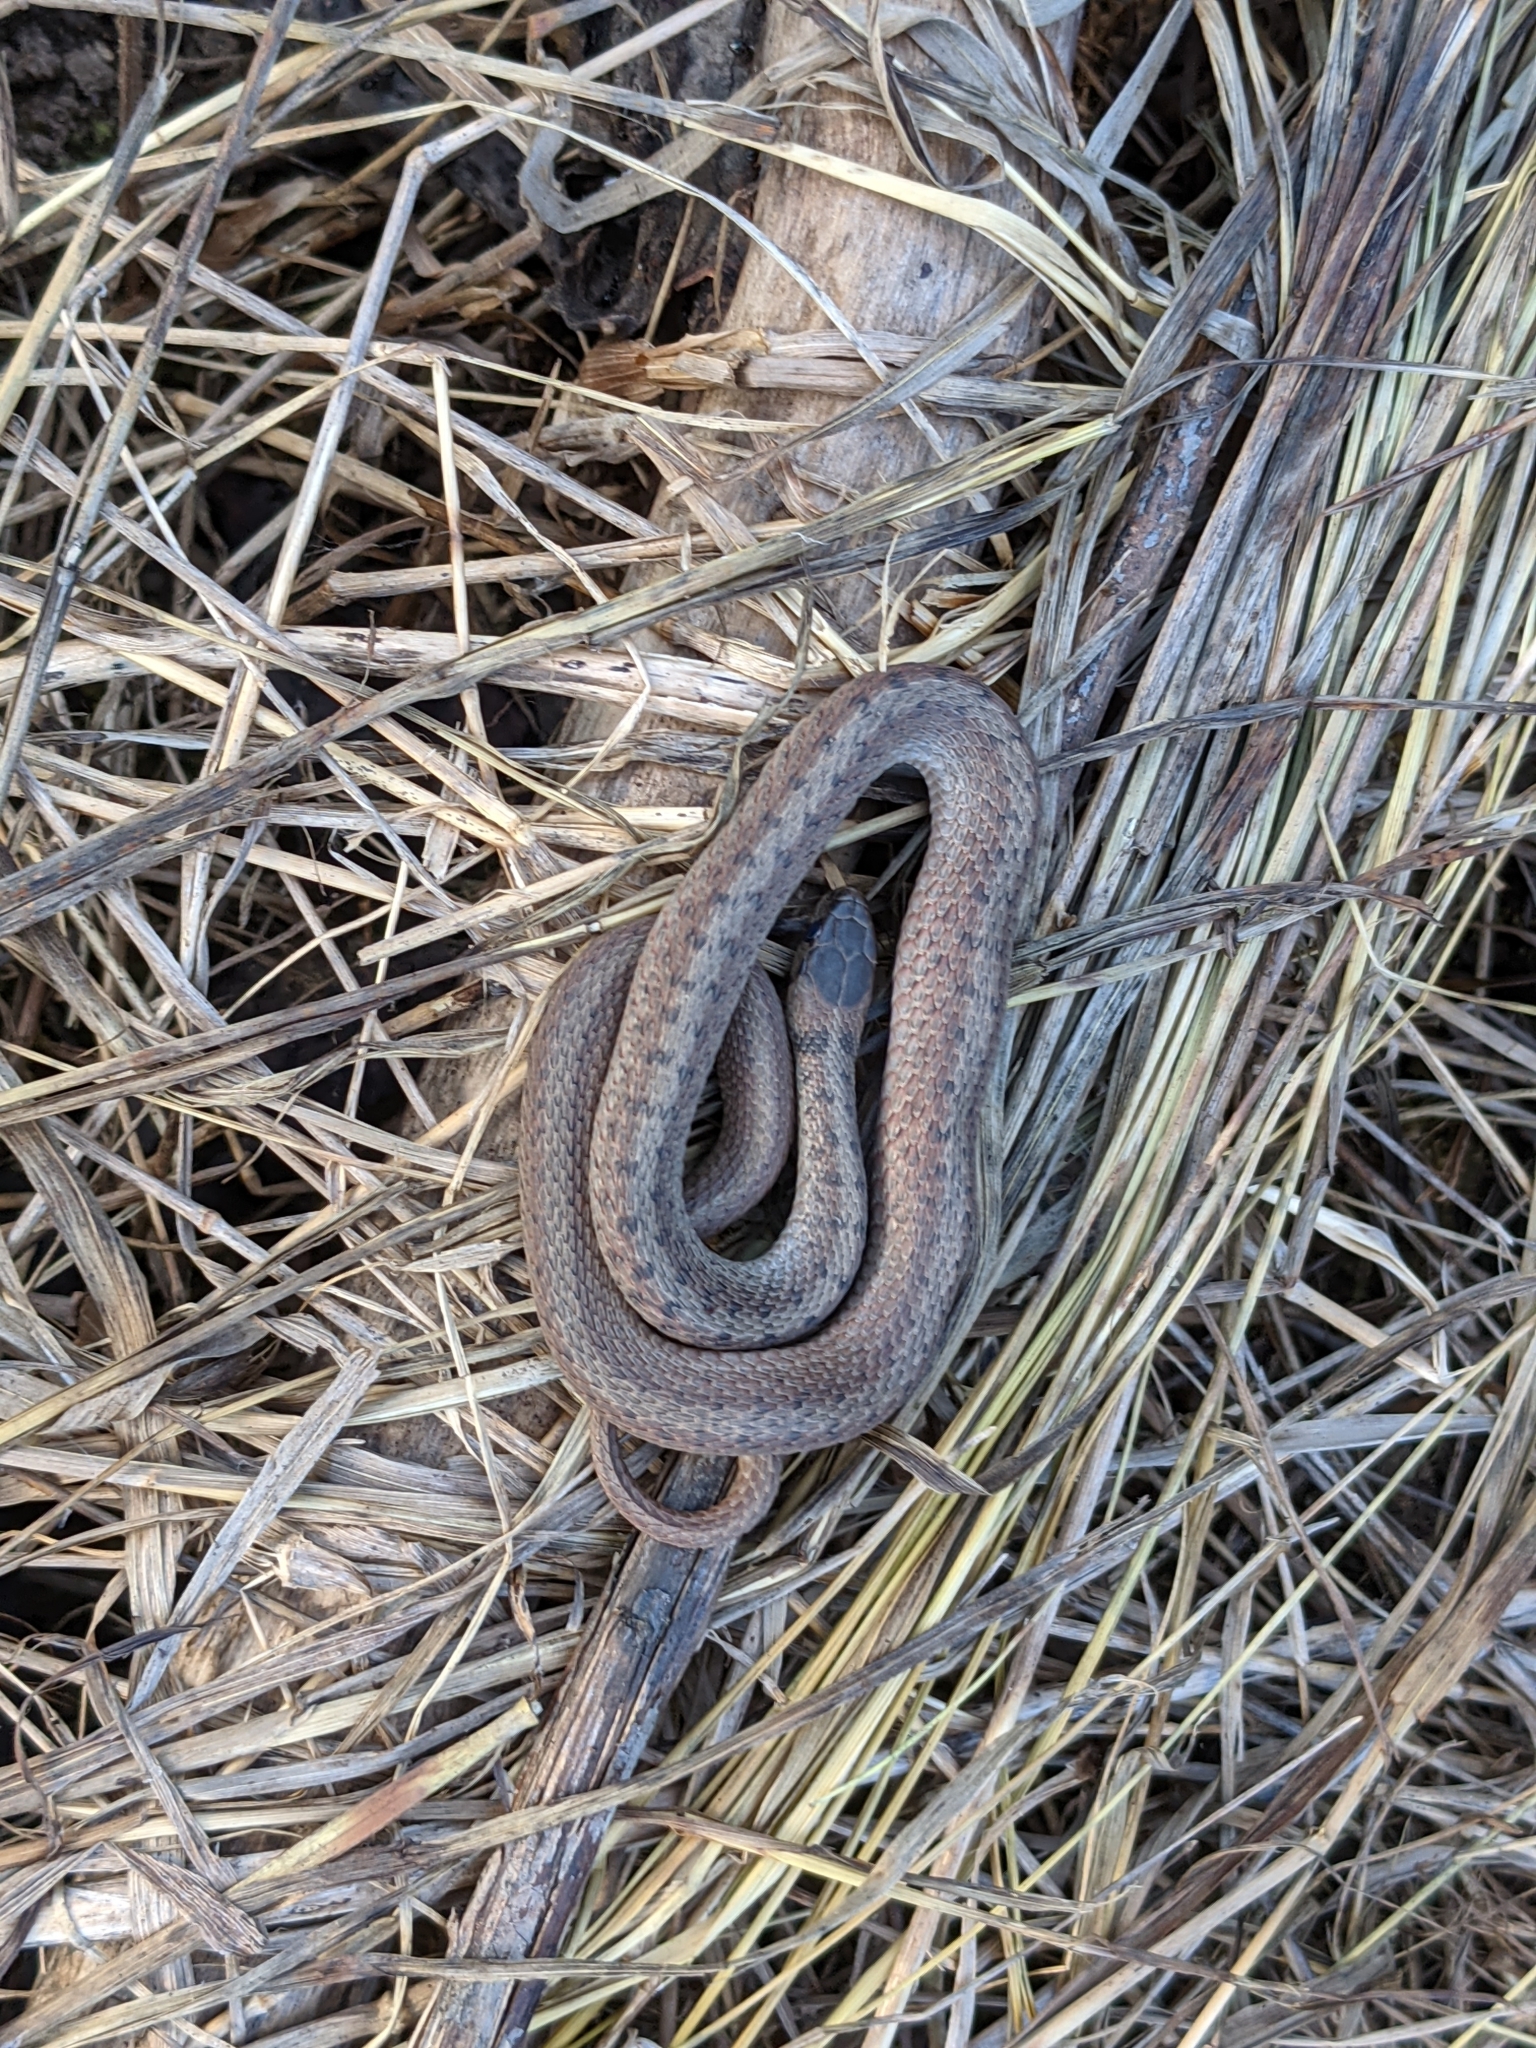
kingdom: Animalia
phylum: Chordata
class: Squamata
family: Colubridae
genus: Storeria
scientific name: Storeria dekayi
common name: (dekay’s) brown snake
